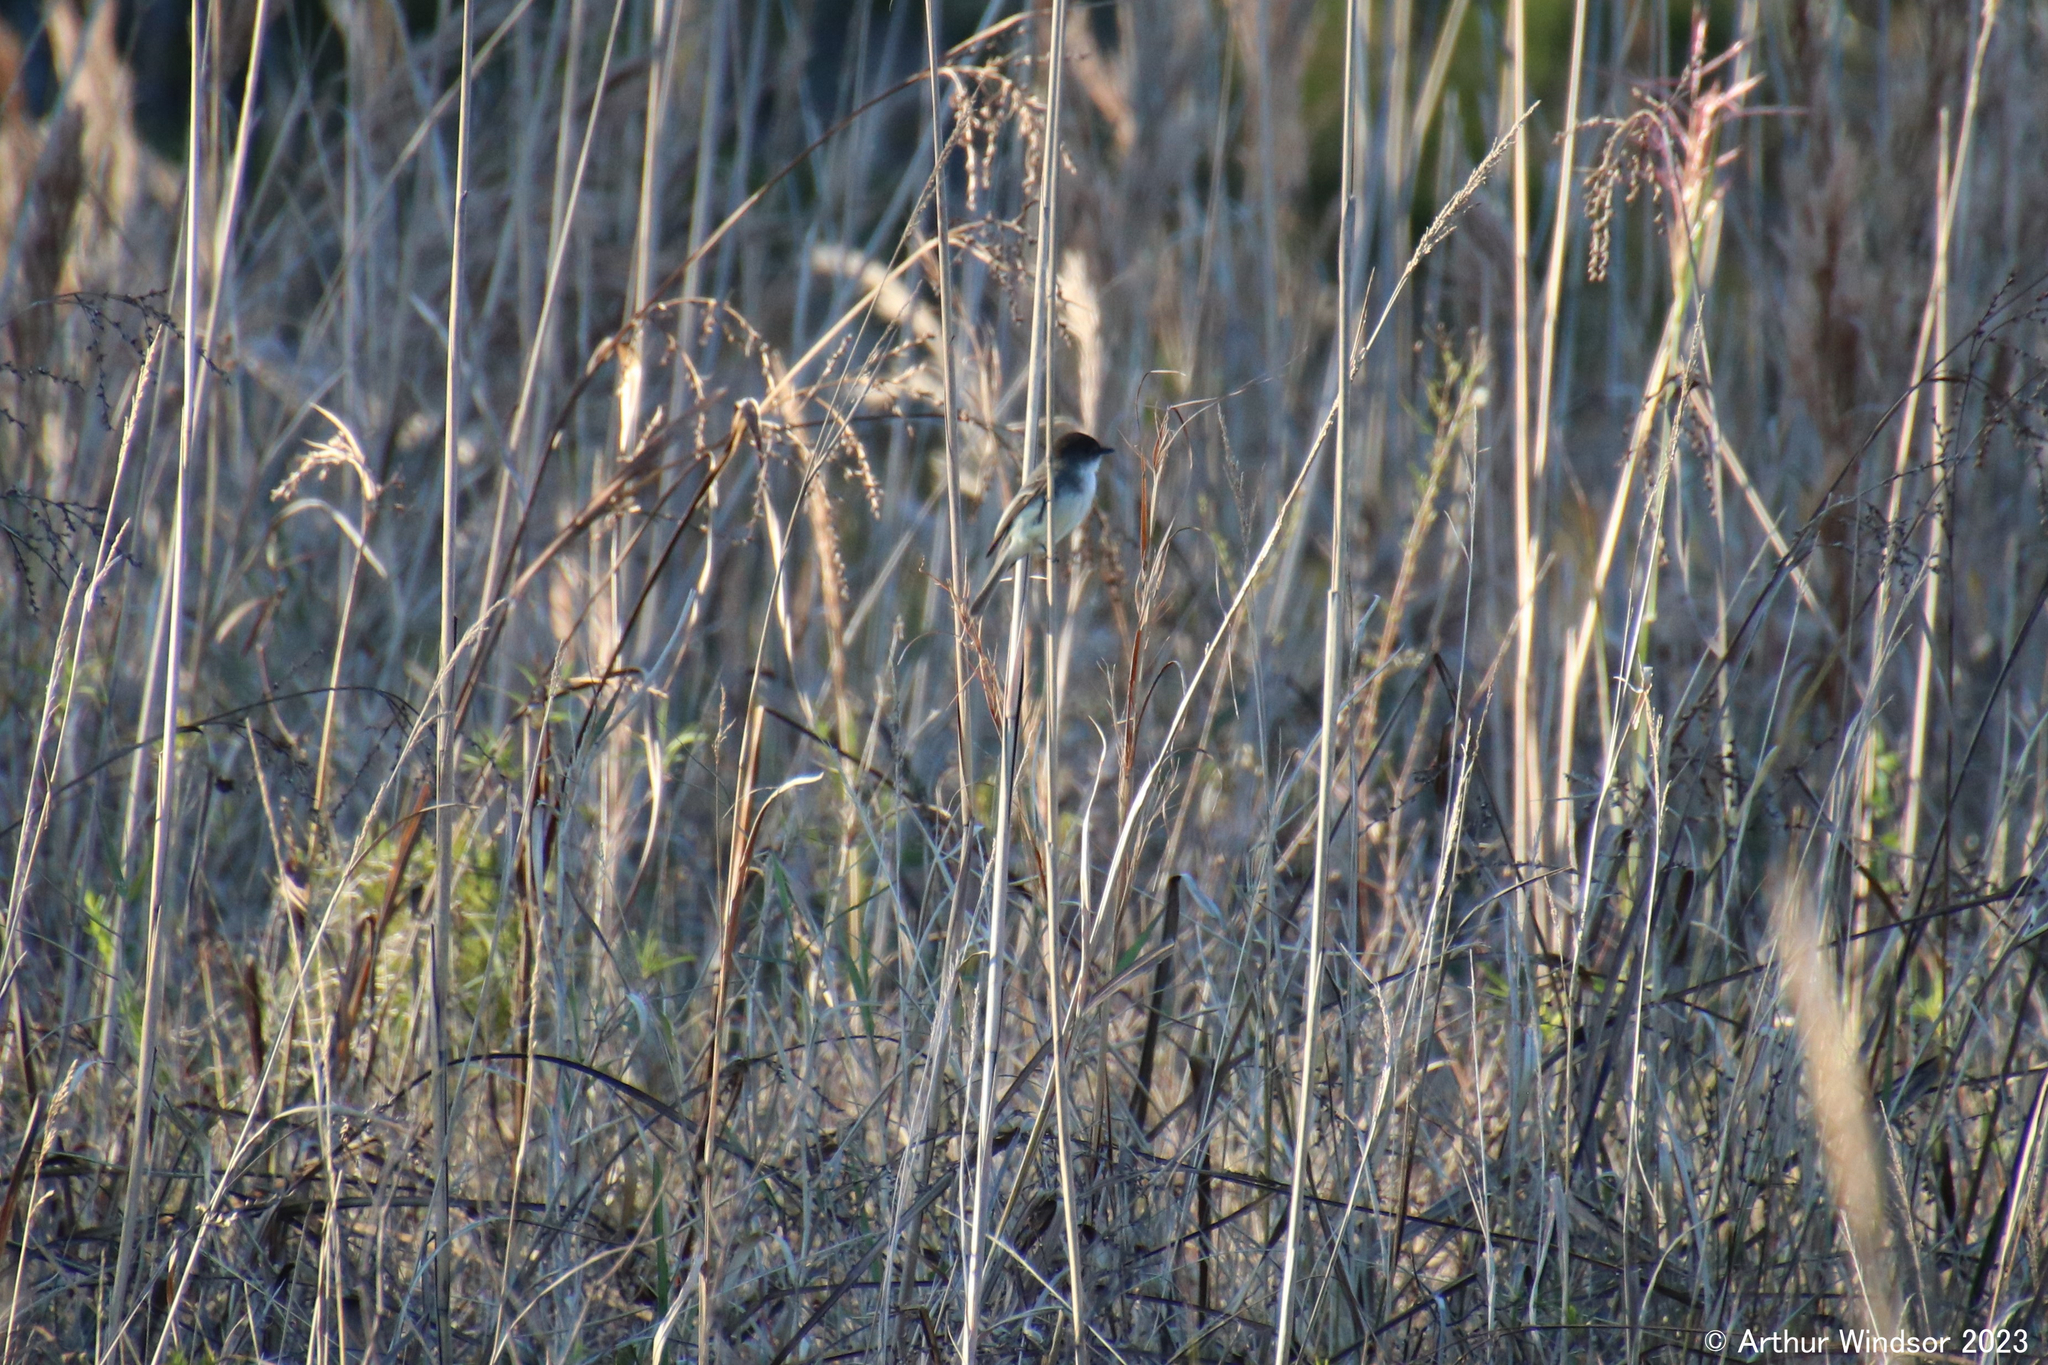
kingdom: Animalia
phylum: Chordata
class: Aves
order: Passeriformes
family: Tyrannidae
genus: Sayornis
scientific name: Sayornis phoebe
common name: Eastern phoebe
